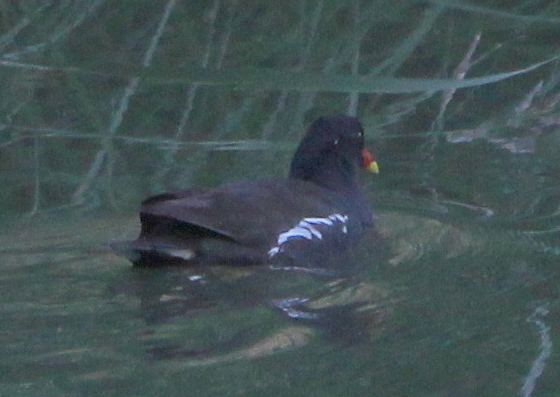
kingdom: Animalia
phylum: Chordata
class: Aves
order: Gruiformes
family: Rallidae
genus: Gallinula
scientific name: Gallinula chloropus
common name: Common moorhen
